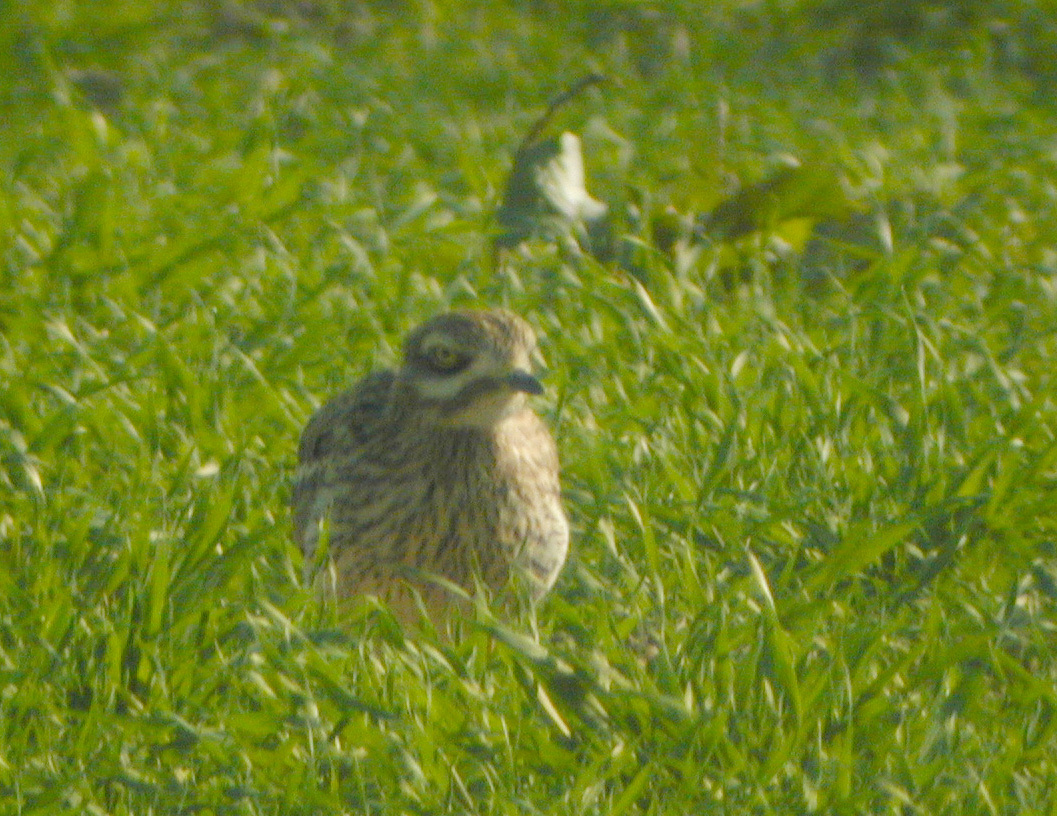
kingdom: Animalia
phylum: Chordata
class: Aves
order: Charadriiformes
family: Burhinidae
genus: Burhinus
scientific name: Burhinus oedicnemus
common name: Eurasian stone-curlew
